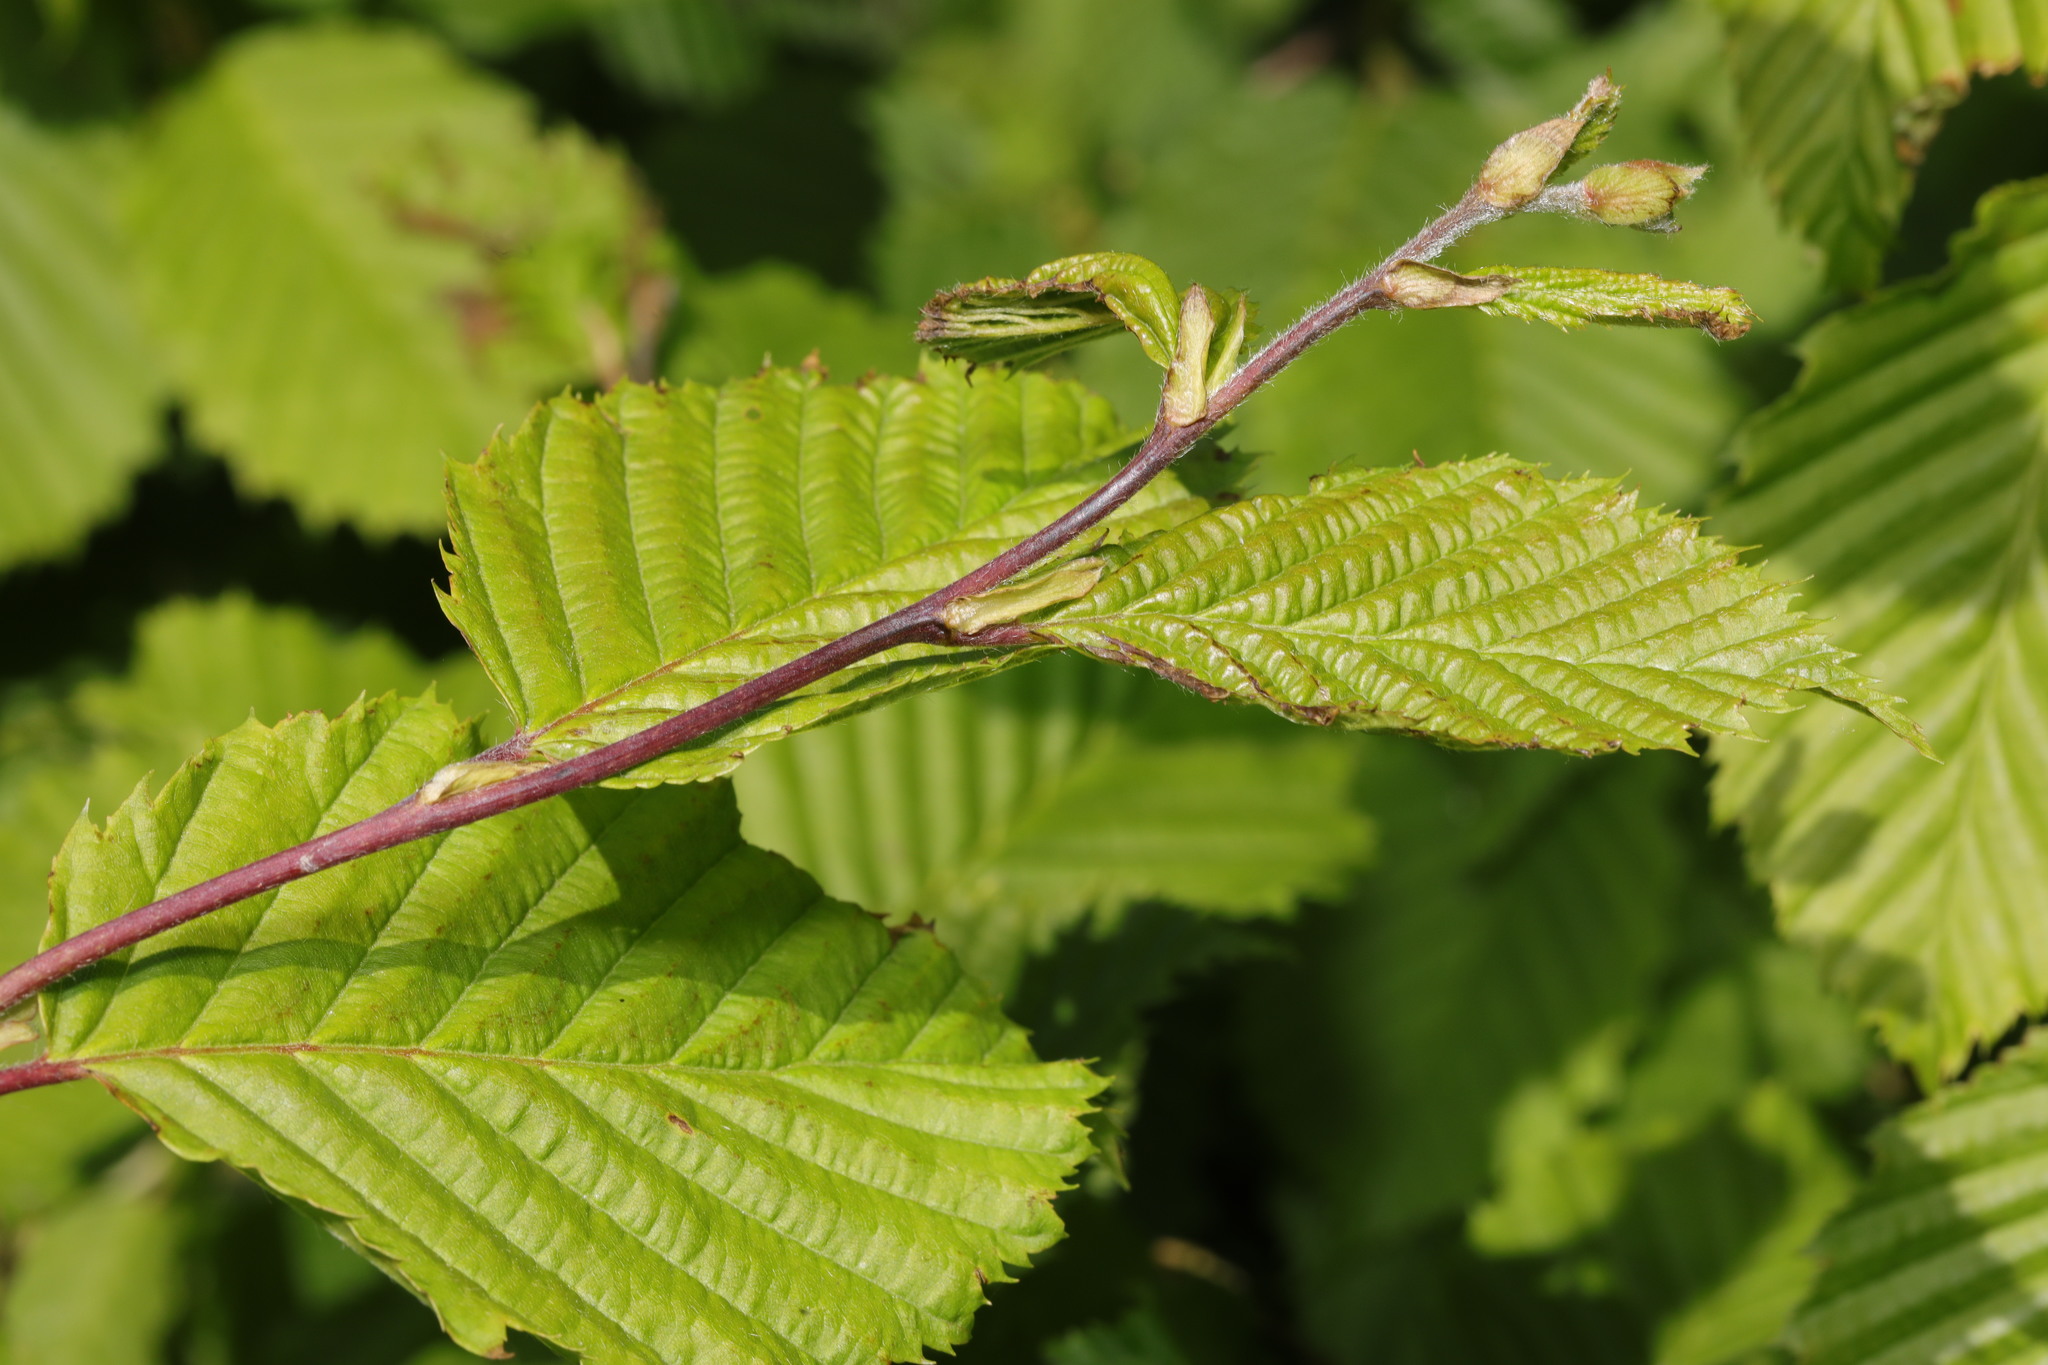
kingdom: Plantae
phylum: Tracheophyta
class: Magnoliopsida
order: Fagales
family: Betulaceae
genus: Carpinus
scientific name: Carpinus betulus
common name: Hornbeam
